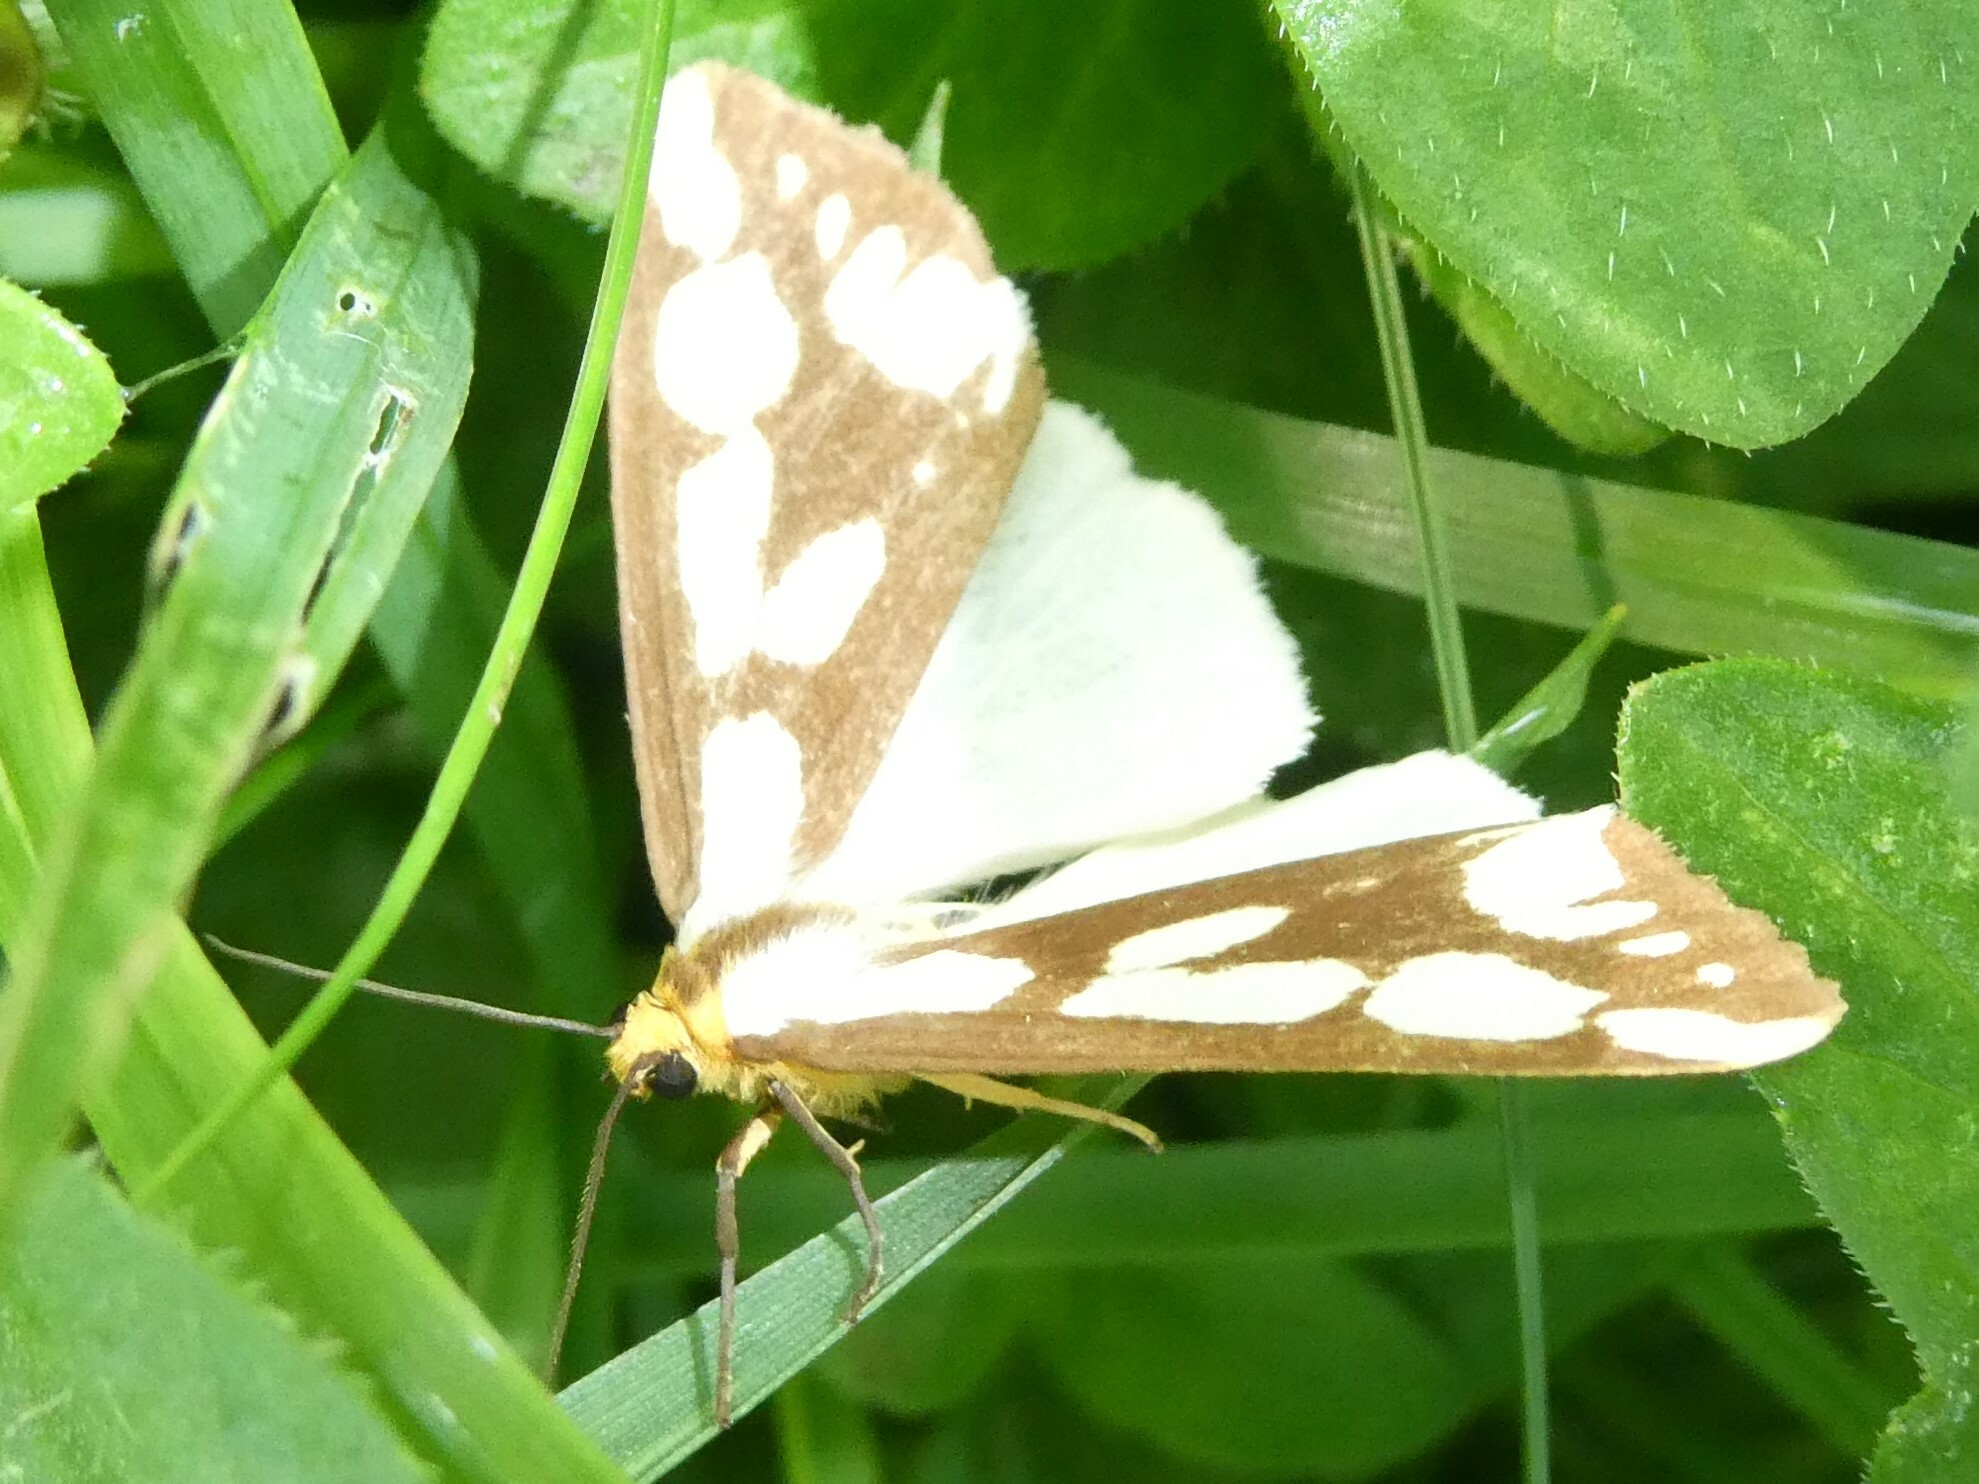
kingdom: Animalia
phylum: Arthropoda
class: Insecta
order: Lepidoptera
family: Erebidae
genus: Haploa
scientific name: Haploa confusa
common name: Confused haploa moth
